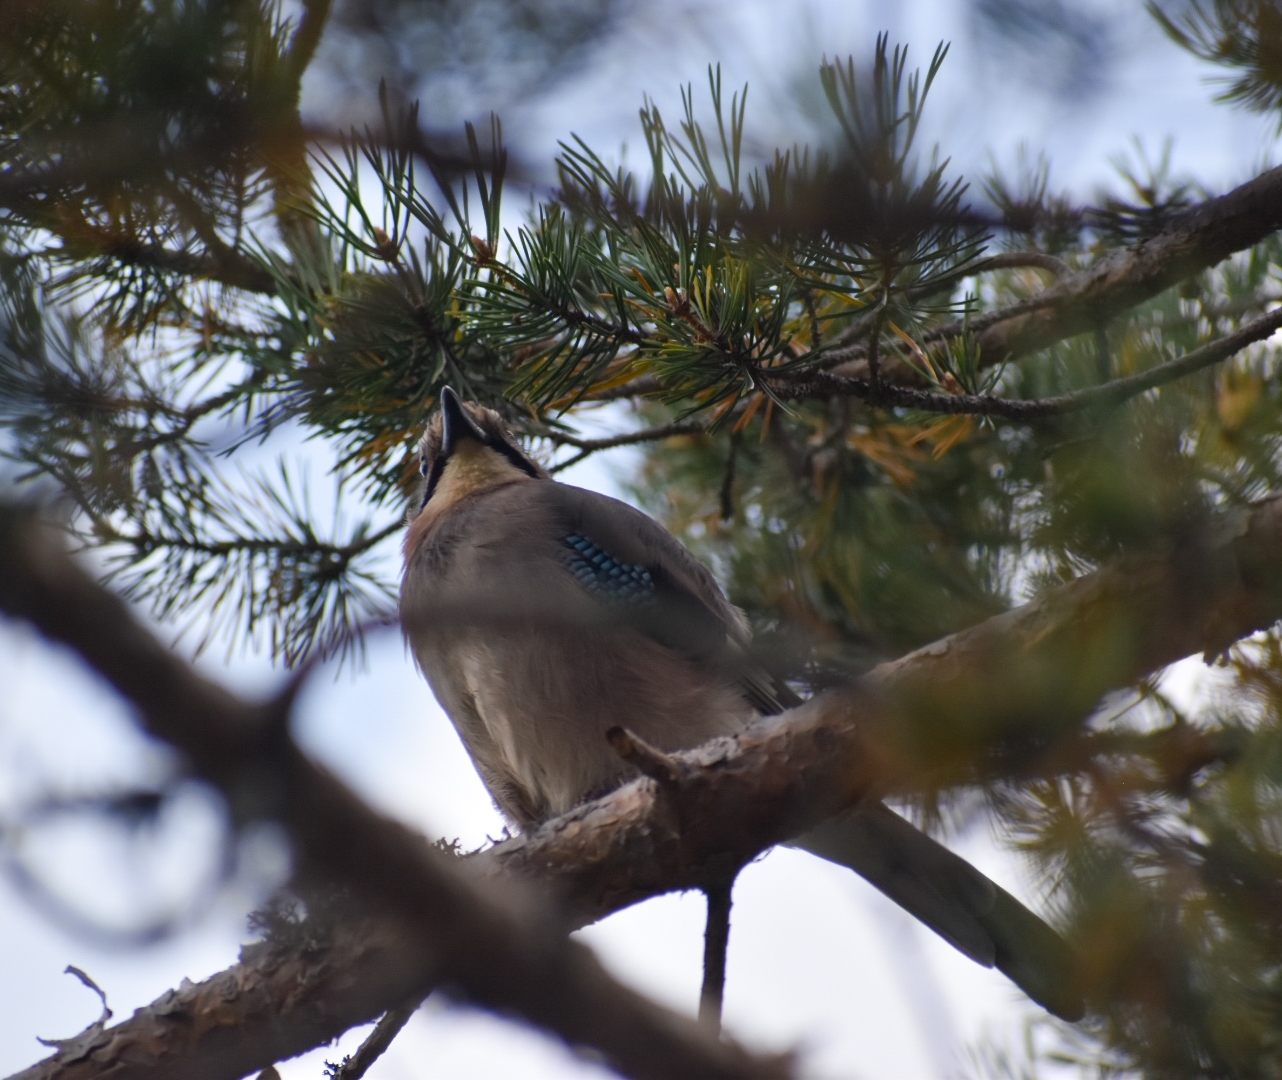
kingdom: Animalia
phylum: Chordata
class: Aves
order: Passeriformes
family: Corvidae
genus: Garrulus
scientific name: Garrulus glandarius
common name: Eurasian jay
